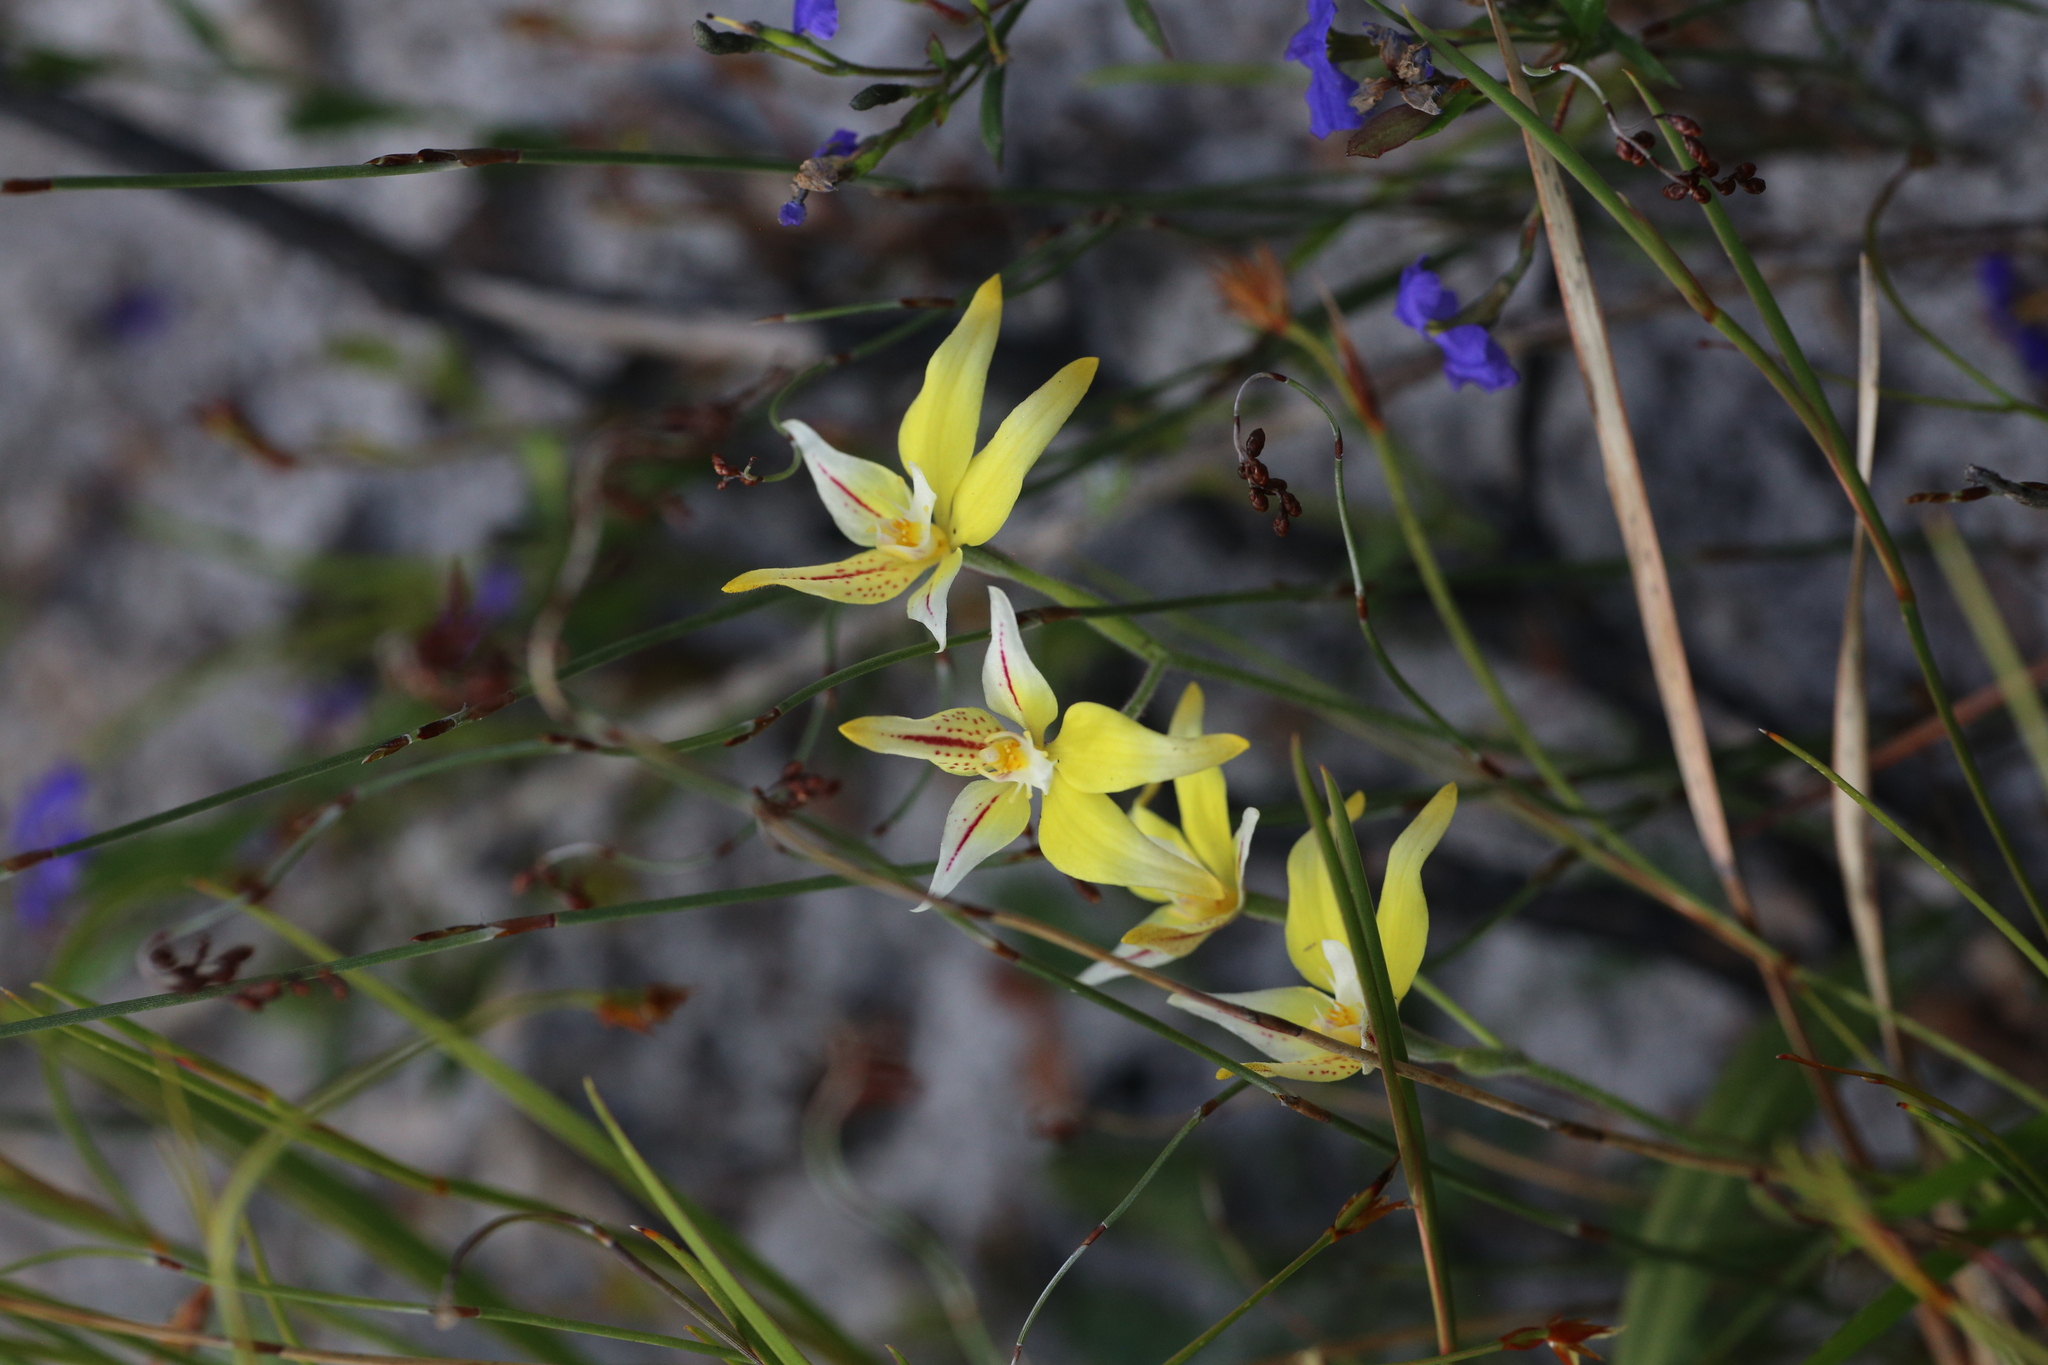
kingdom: Plantae
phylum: Tracheophyta
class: Liliopsida
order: Asparagales
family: Orchidaceae
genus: Caladenia
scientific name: Caladenia flava
